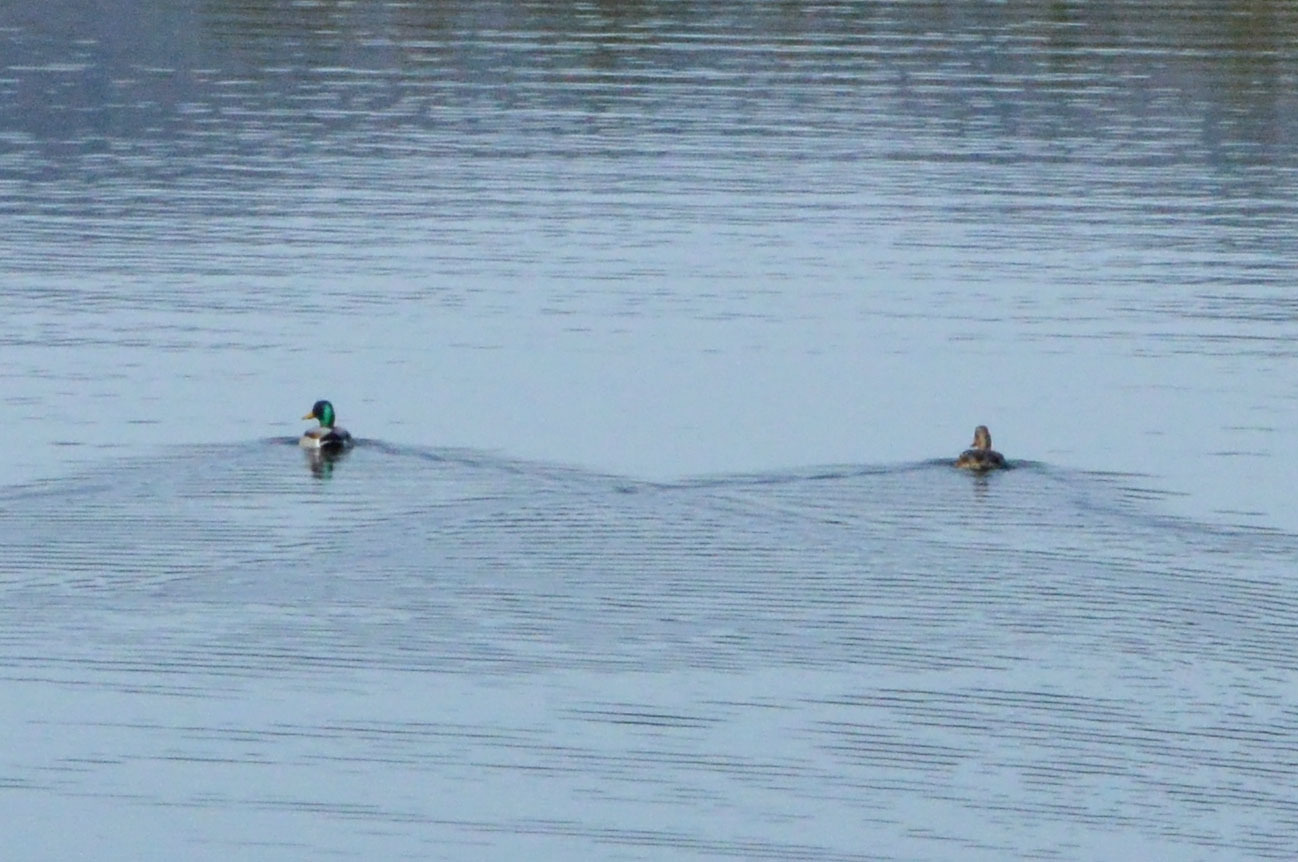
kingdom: Animalia
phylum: Chordata
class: Aves
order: Anseriformes
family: Anatidae
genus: Anas
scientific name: Anas platyrhynchos
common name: Mallard
